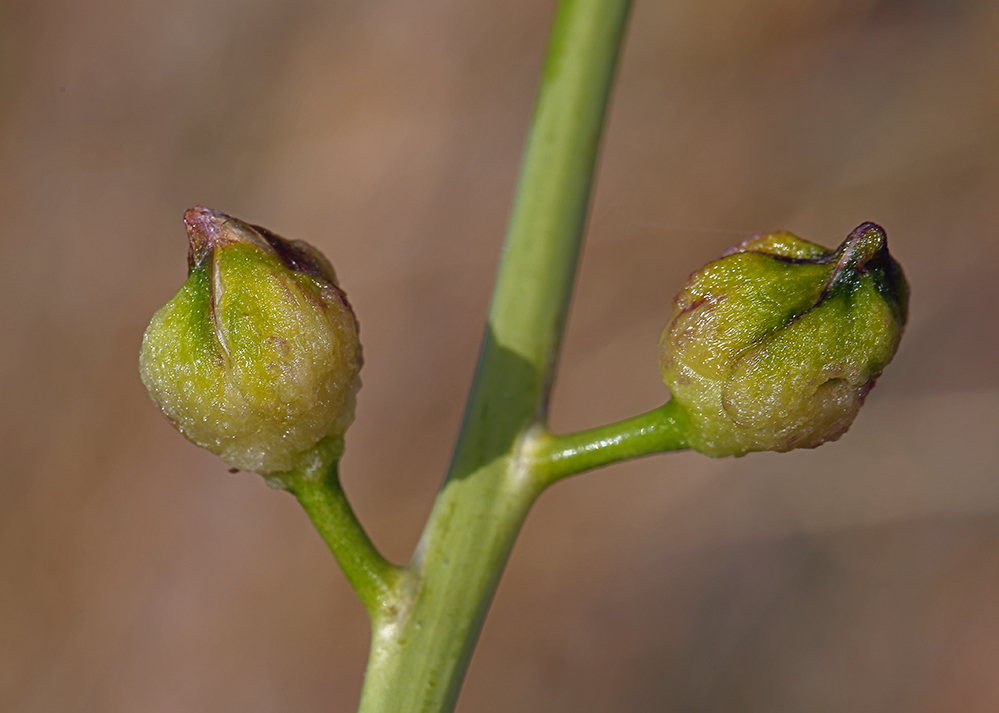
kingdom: Plantae
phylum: Tracheophyta
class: Magnoliopsida
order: Brassicales
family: Brassicaceae
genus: Streptanthus
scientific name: Streptanthus pilosus
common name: Chocolate drops
